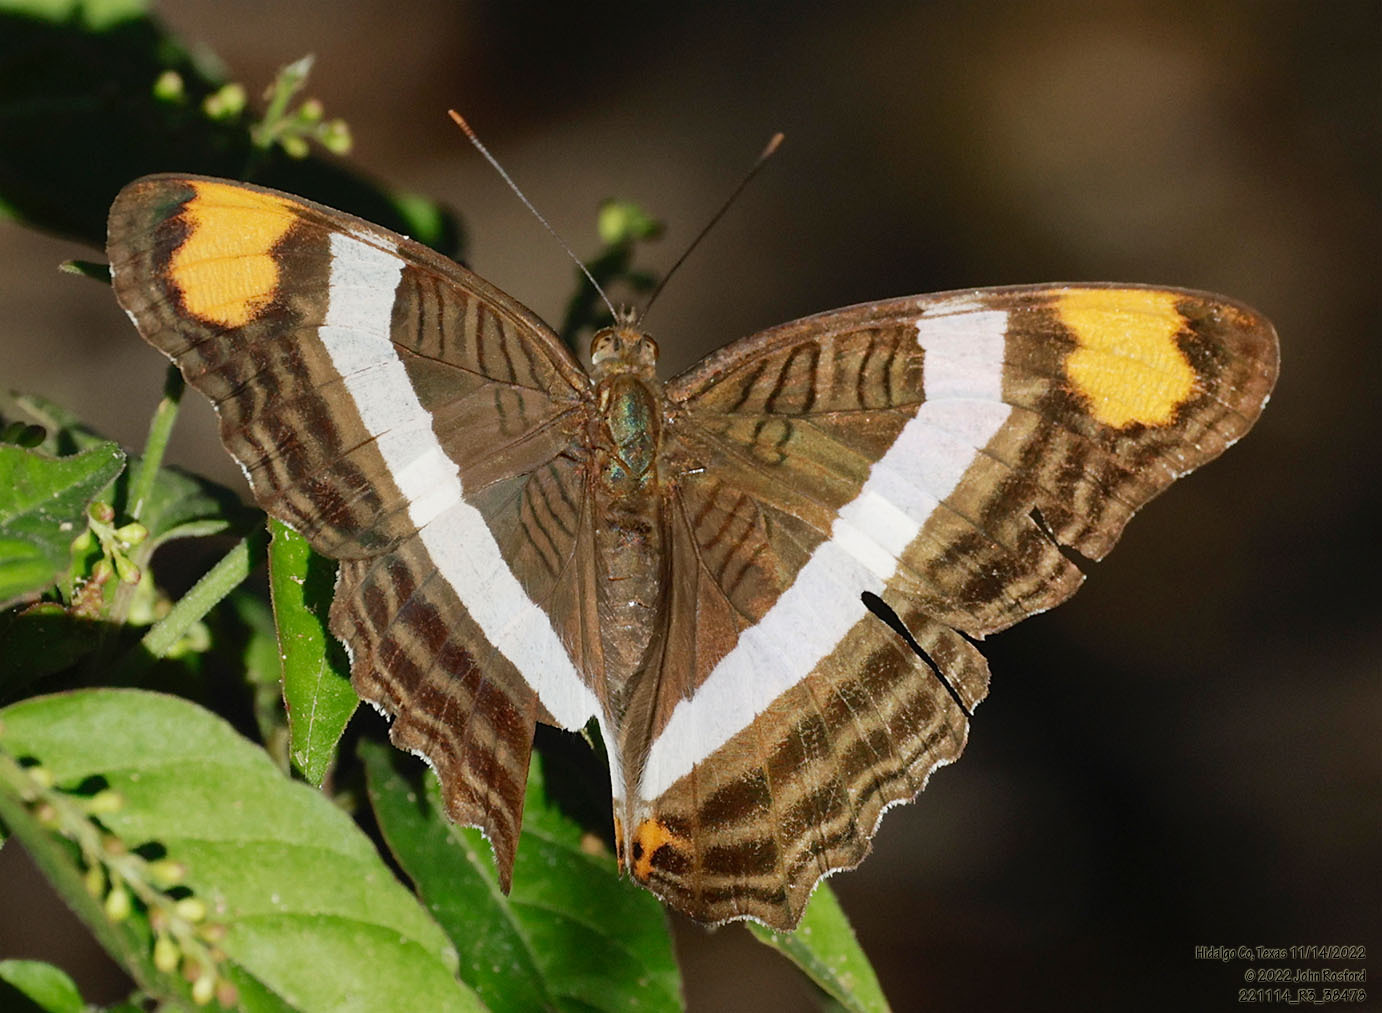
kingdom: Animalia
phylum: Arthropoda
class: Insecta
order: Lepidoptera
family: Nymphalidae
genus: Limenitis
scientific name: Limenitis fessonia
